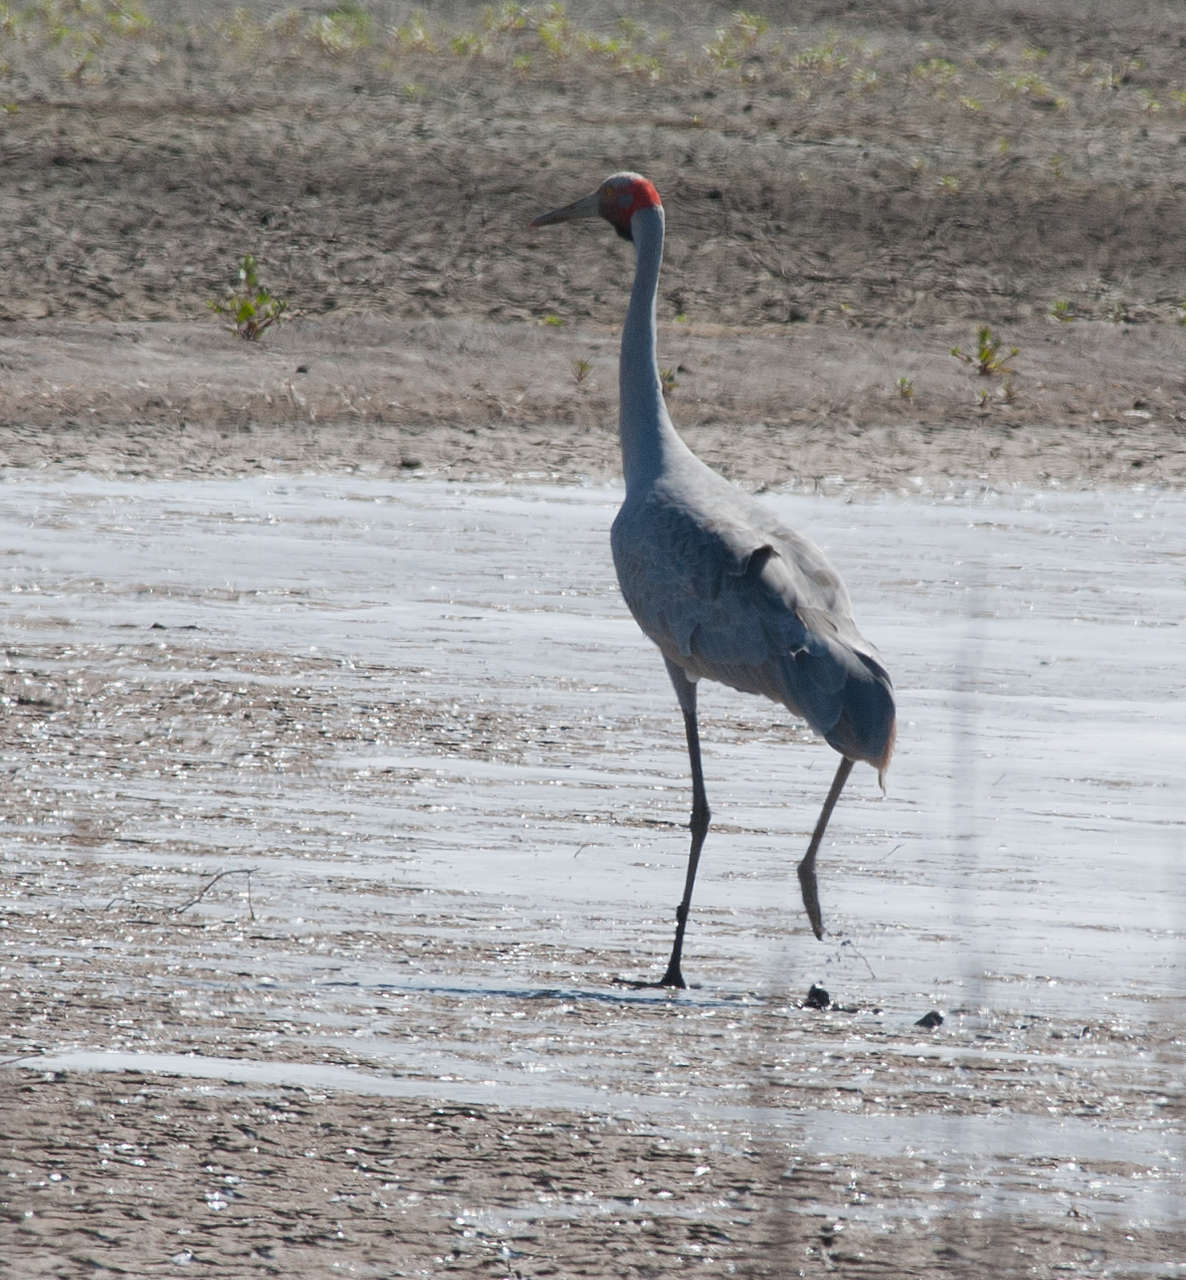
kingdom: Animalia
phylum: Chordata
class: Aves
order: Gruiformes
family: Gruidae
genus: Grus
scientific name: Grus rubicunda
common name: Brolga
